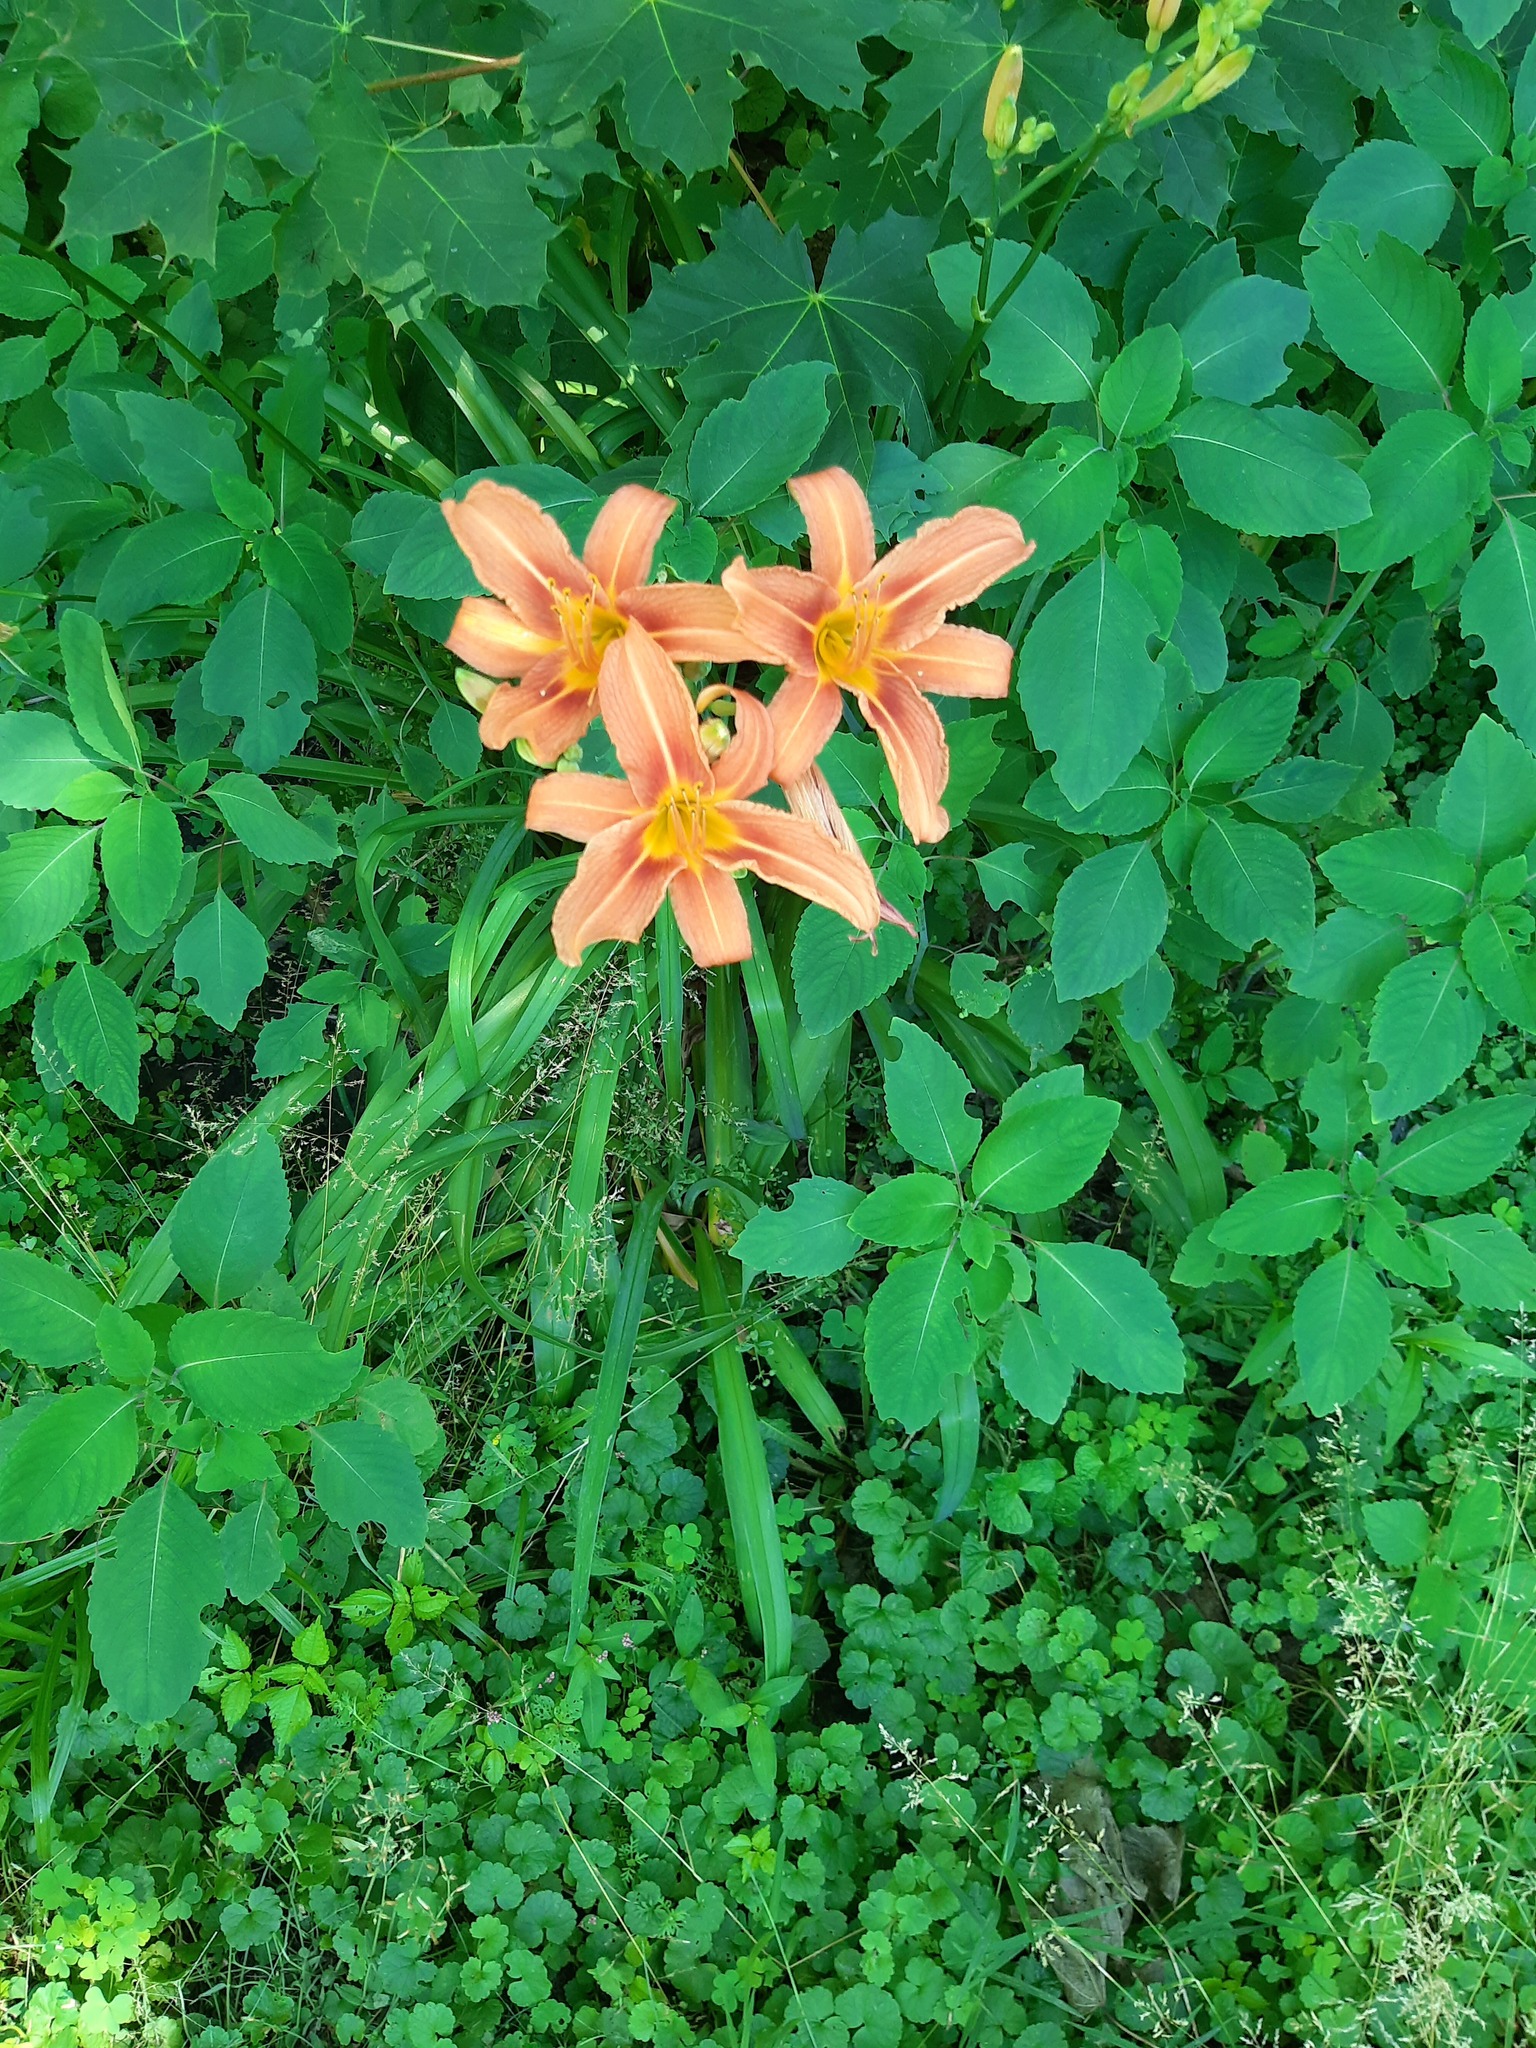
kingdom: Plantae
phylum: Tracheophyta
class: Liliopsida
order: Asparagales
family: Asphodelaceae
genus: Hemerocallis
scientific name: Hemerocallis fulva
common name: Orange day-lily
